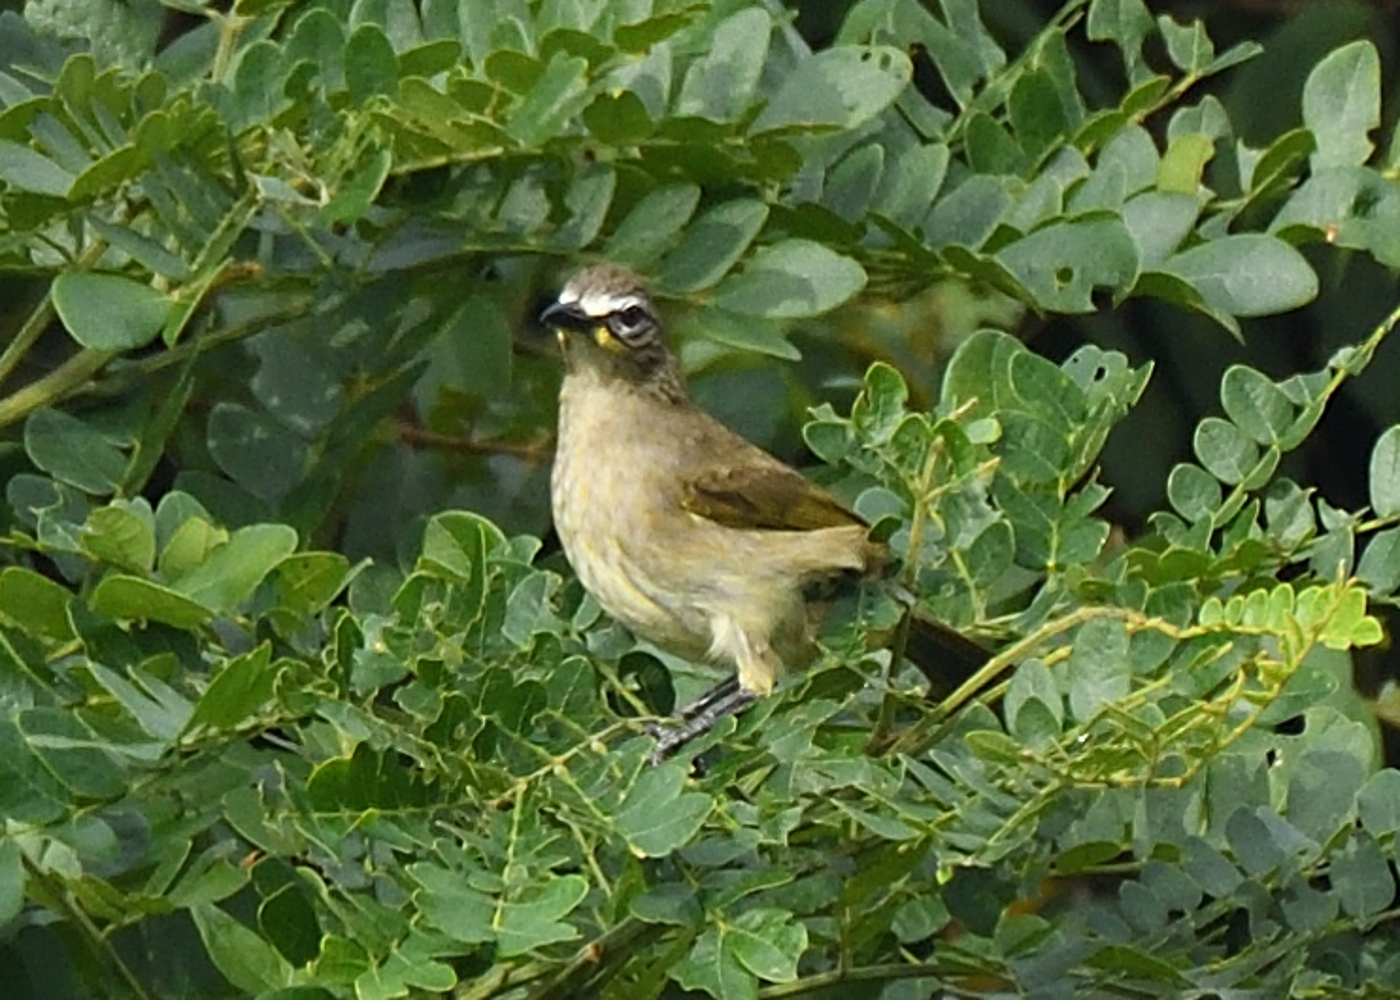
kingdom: Animalia
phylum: Chordata
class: Aves
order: Passeriformes
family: Pycnonotidae
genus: Pycnonotus
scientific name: Pycnonotus luteolus
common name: White-browed bulbul
